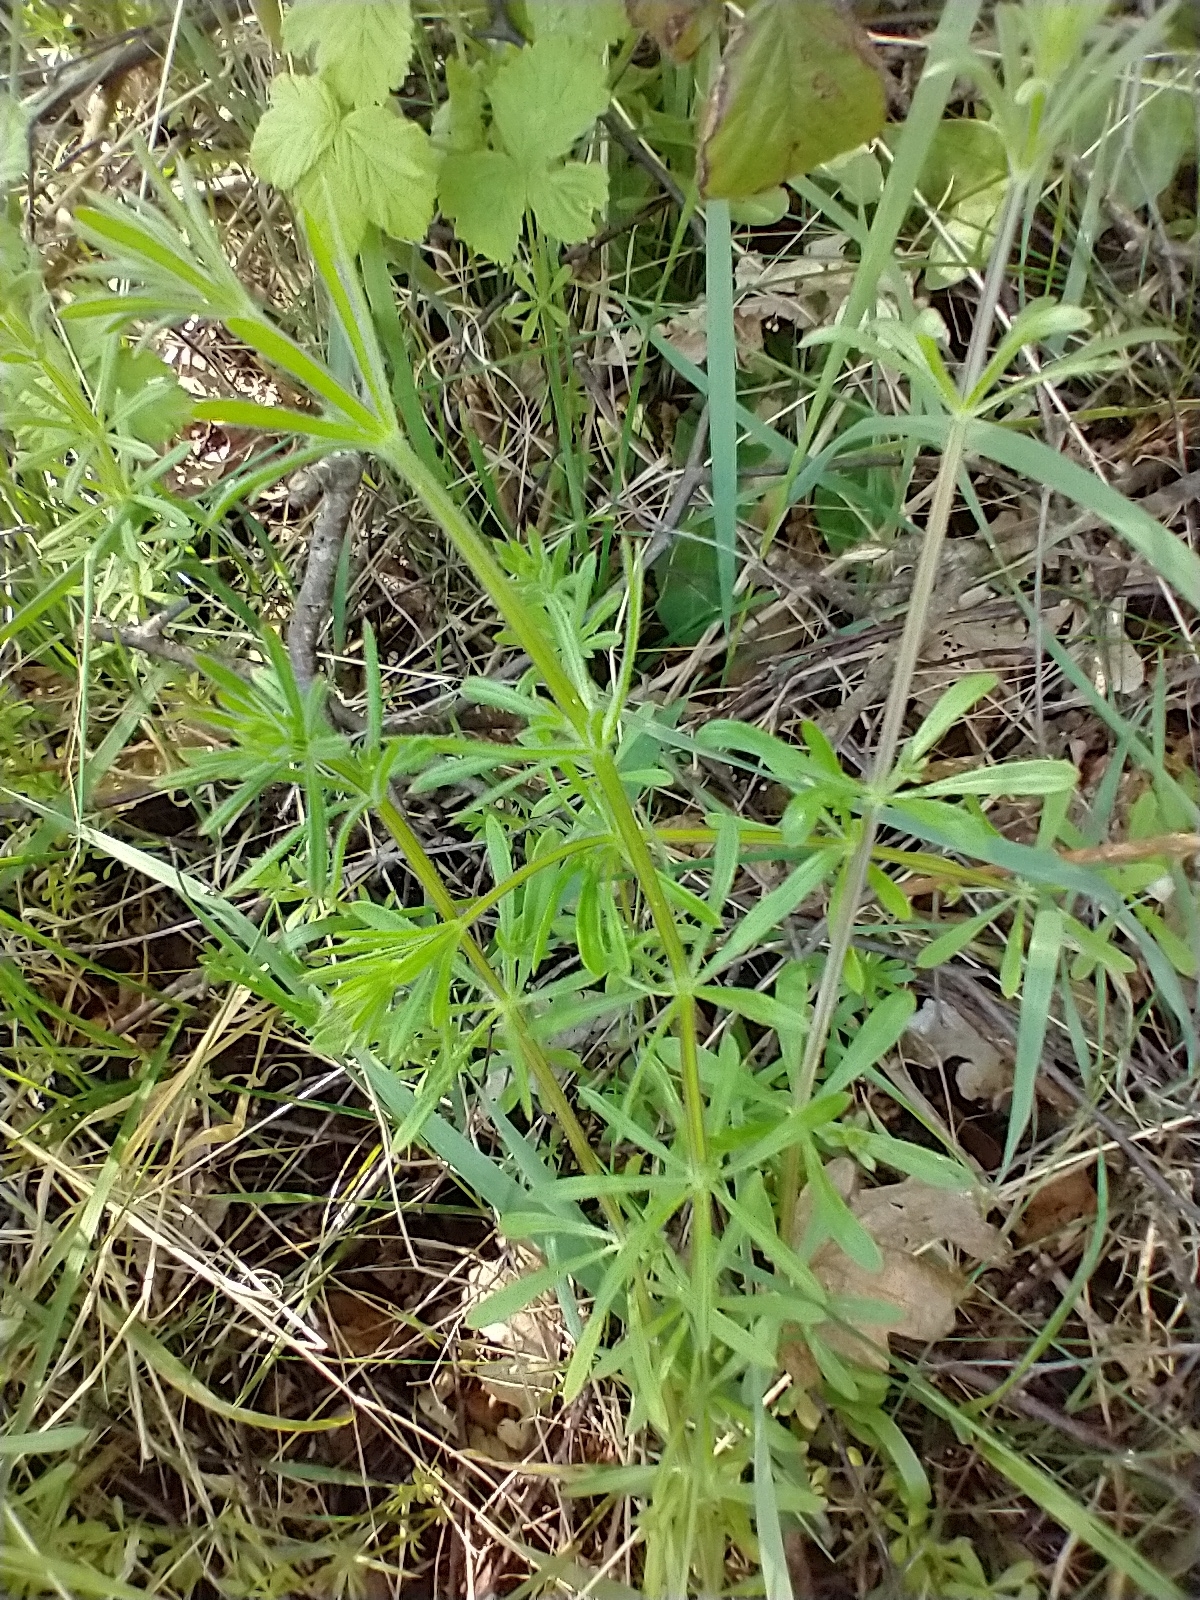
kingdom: Plantae
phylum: Tracheophyta
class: Magnoliopsida
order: Gentianales
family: Rubiaceae
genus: Galium
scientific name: Galium aparine
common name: Cleavers
